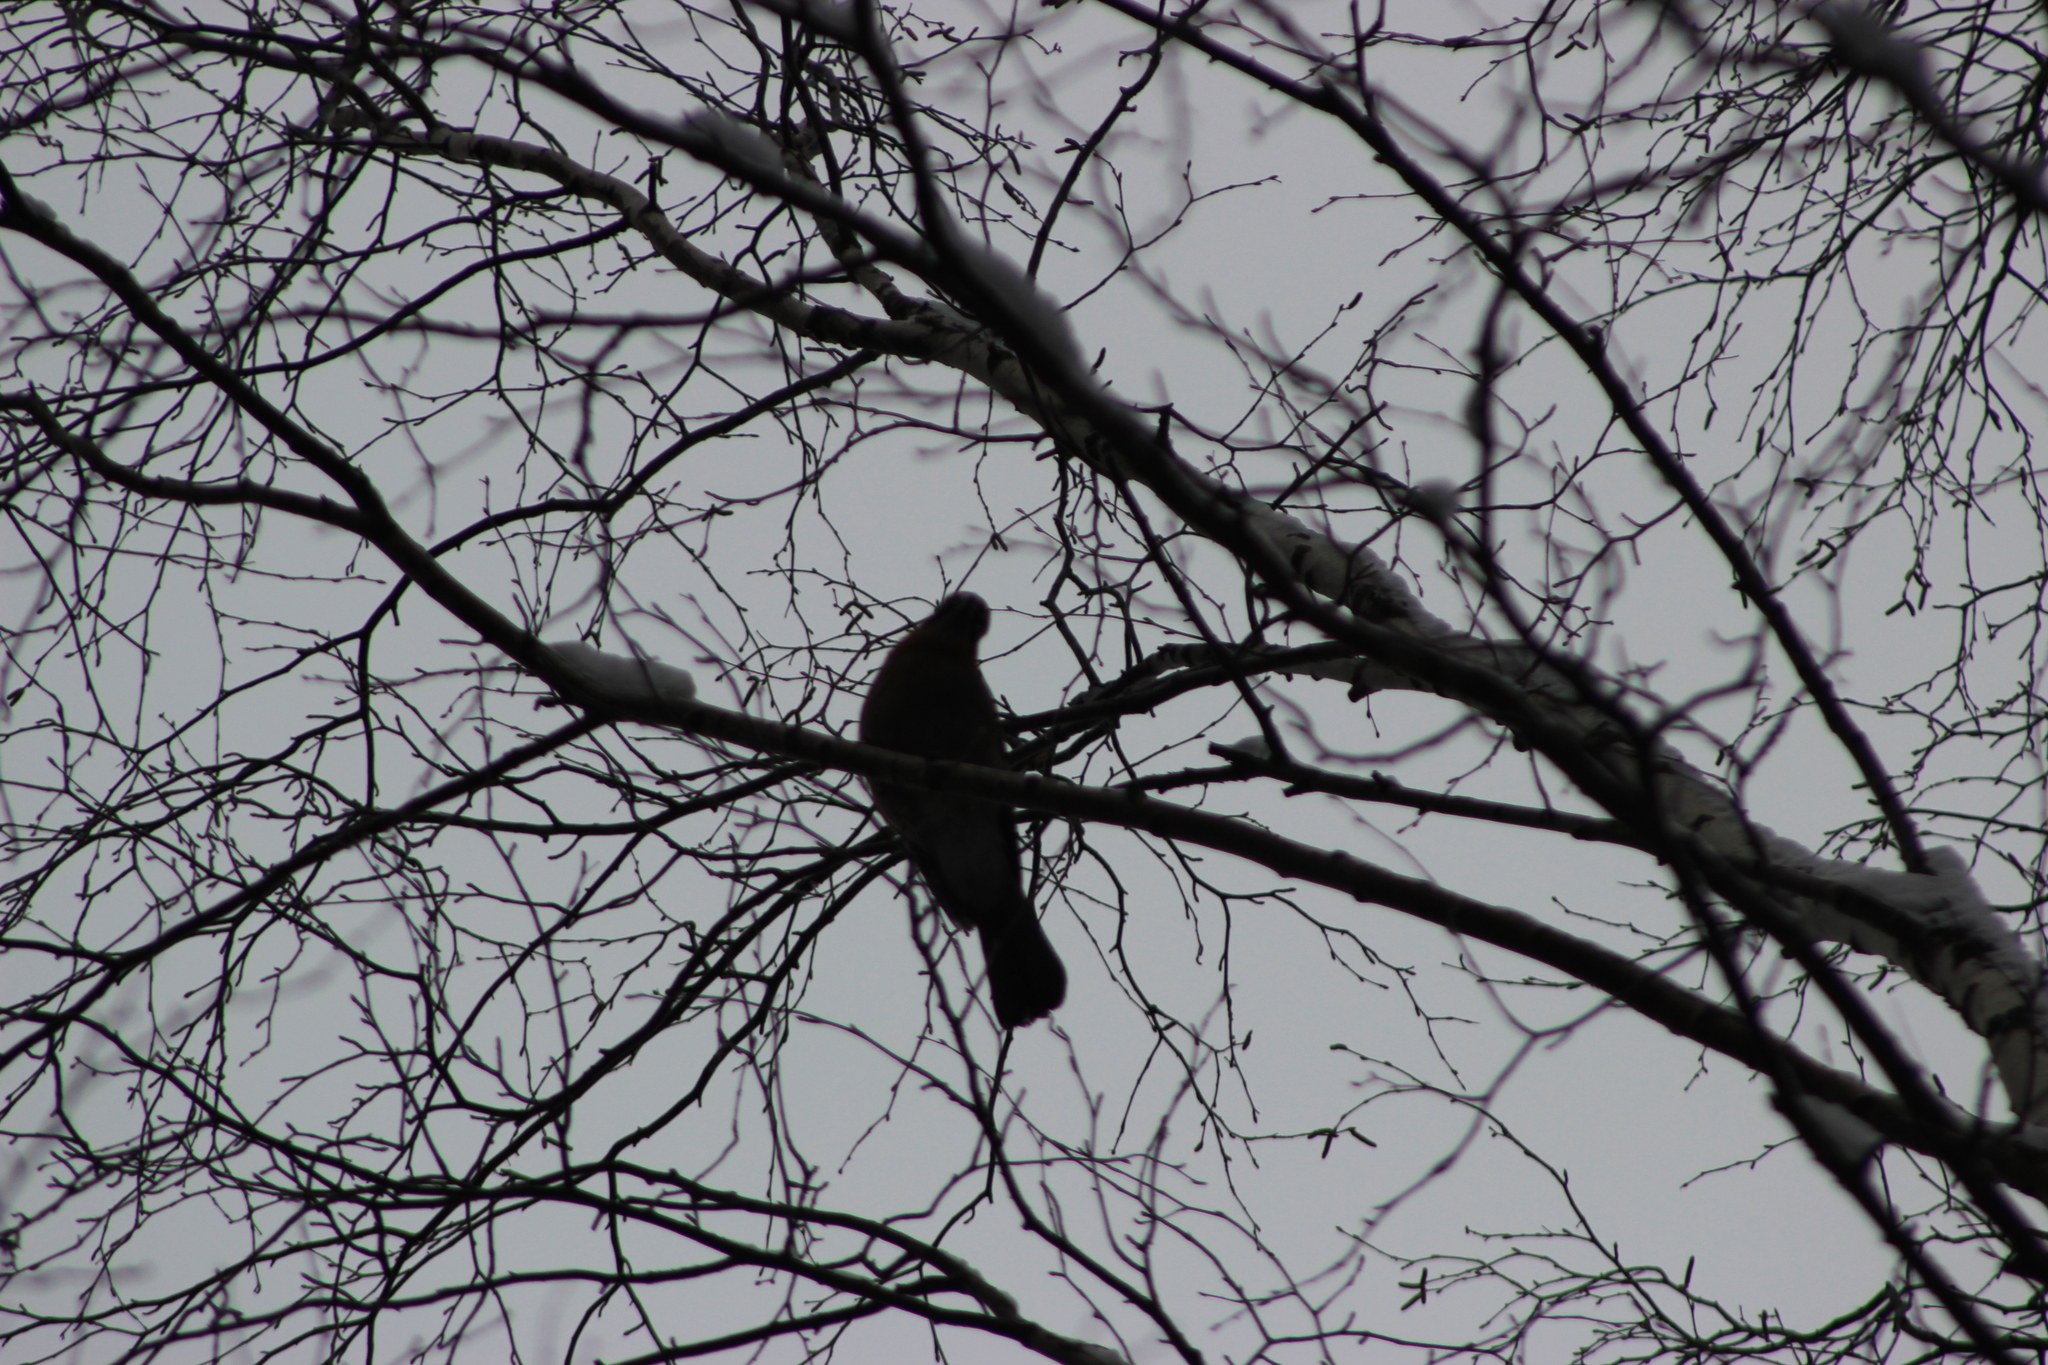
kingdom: Animalia
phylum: Chordata
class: Aves
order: Passeriformes
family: Corvidae
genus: Garrulus
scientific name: Garrulus glandarius
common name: Eurasian jay
